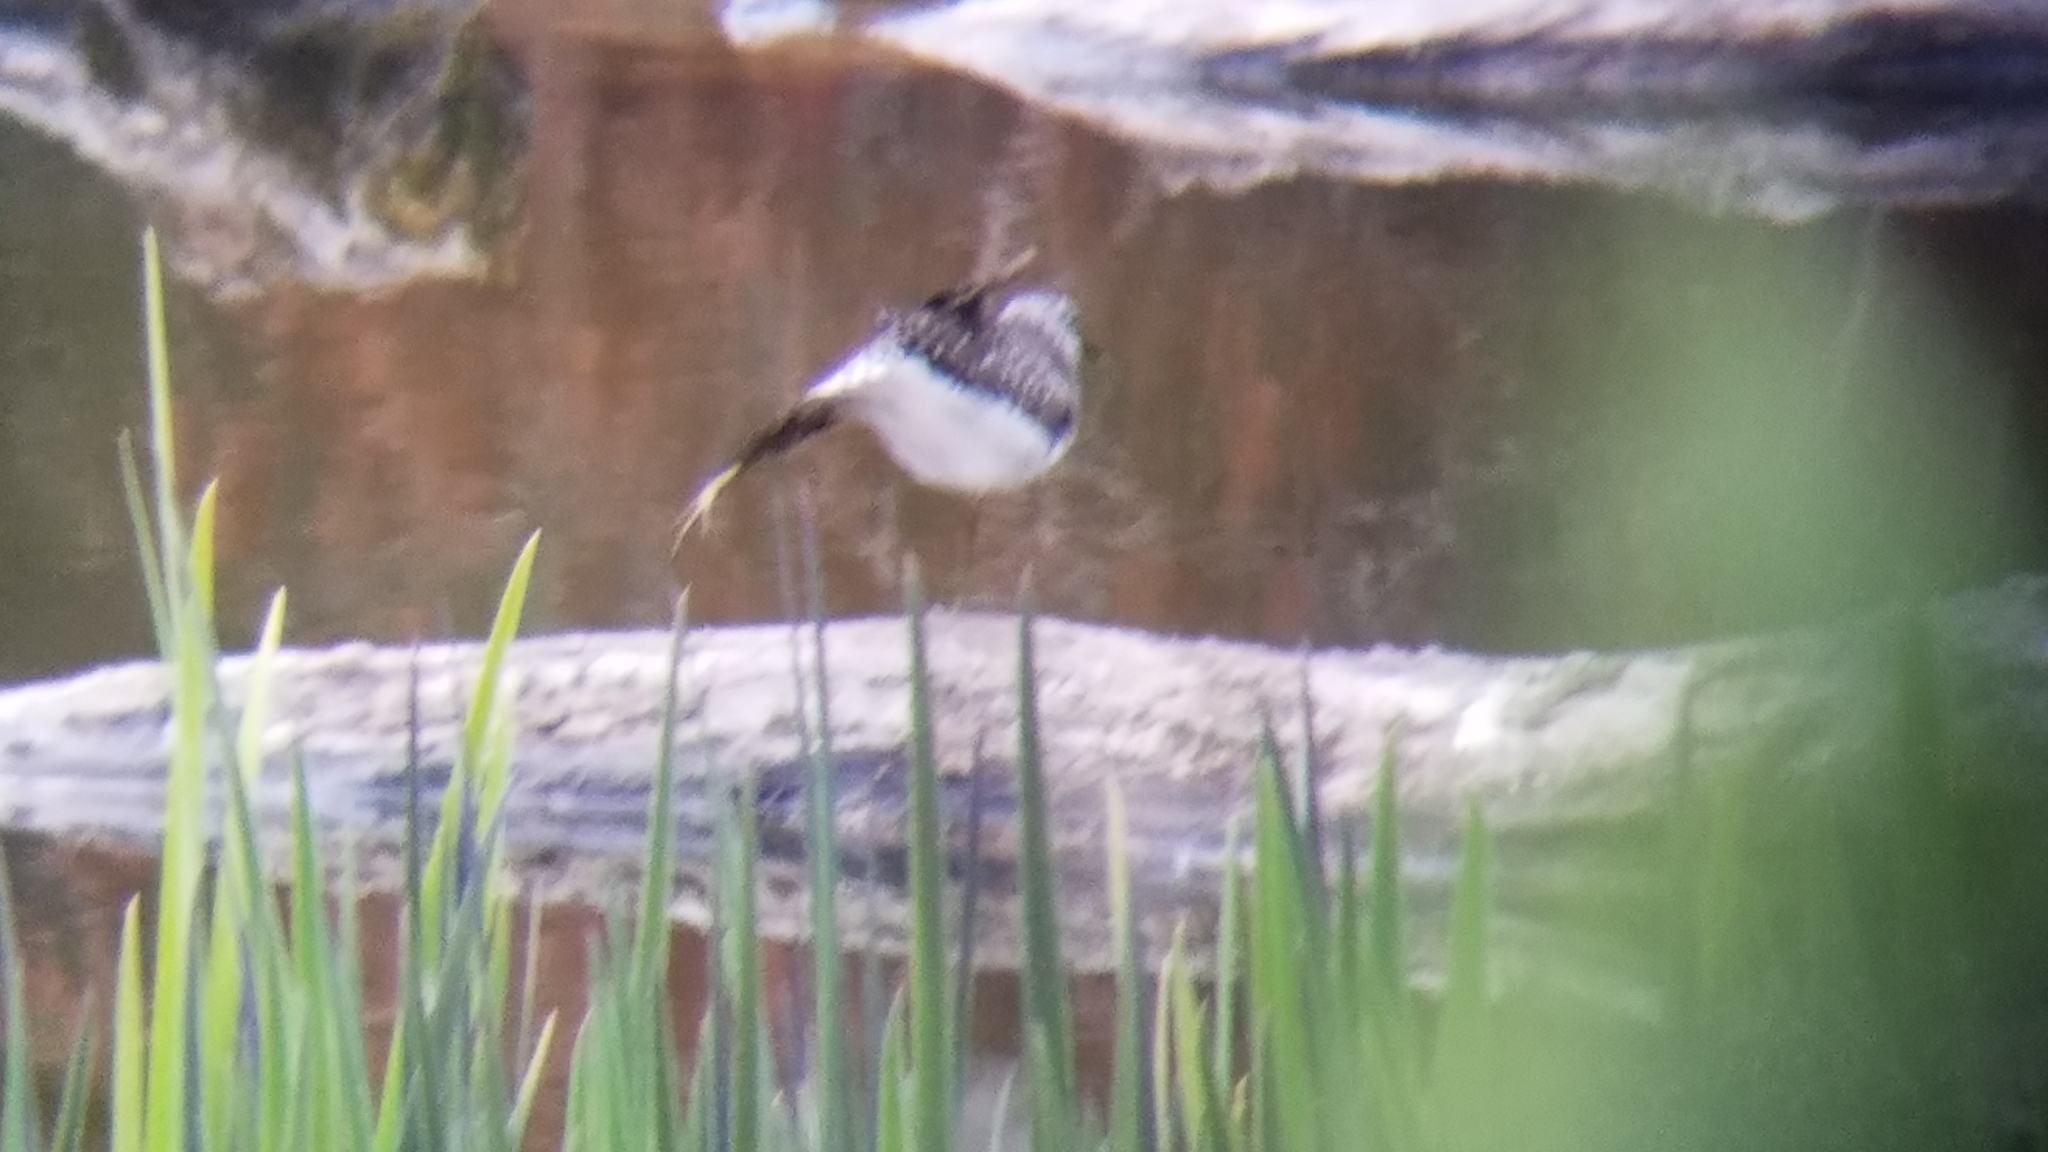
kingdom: Animalia
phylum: Chordata
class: Aves
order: Charadriiformes
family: Scolopacidae
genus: Tringa
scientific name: Tringa solitaria
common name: Solitary sandpiper
